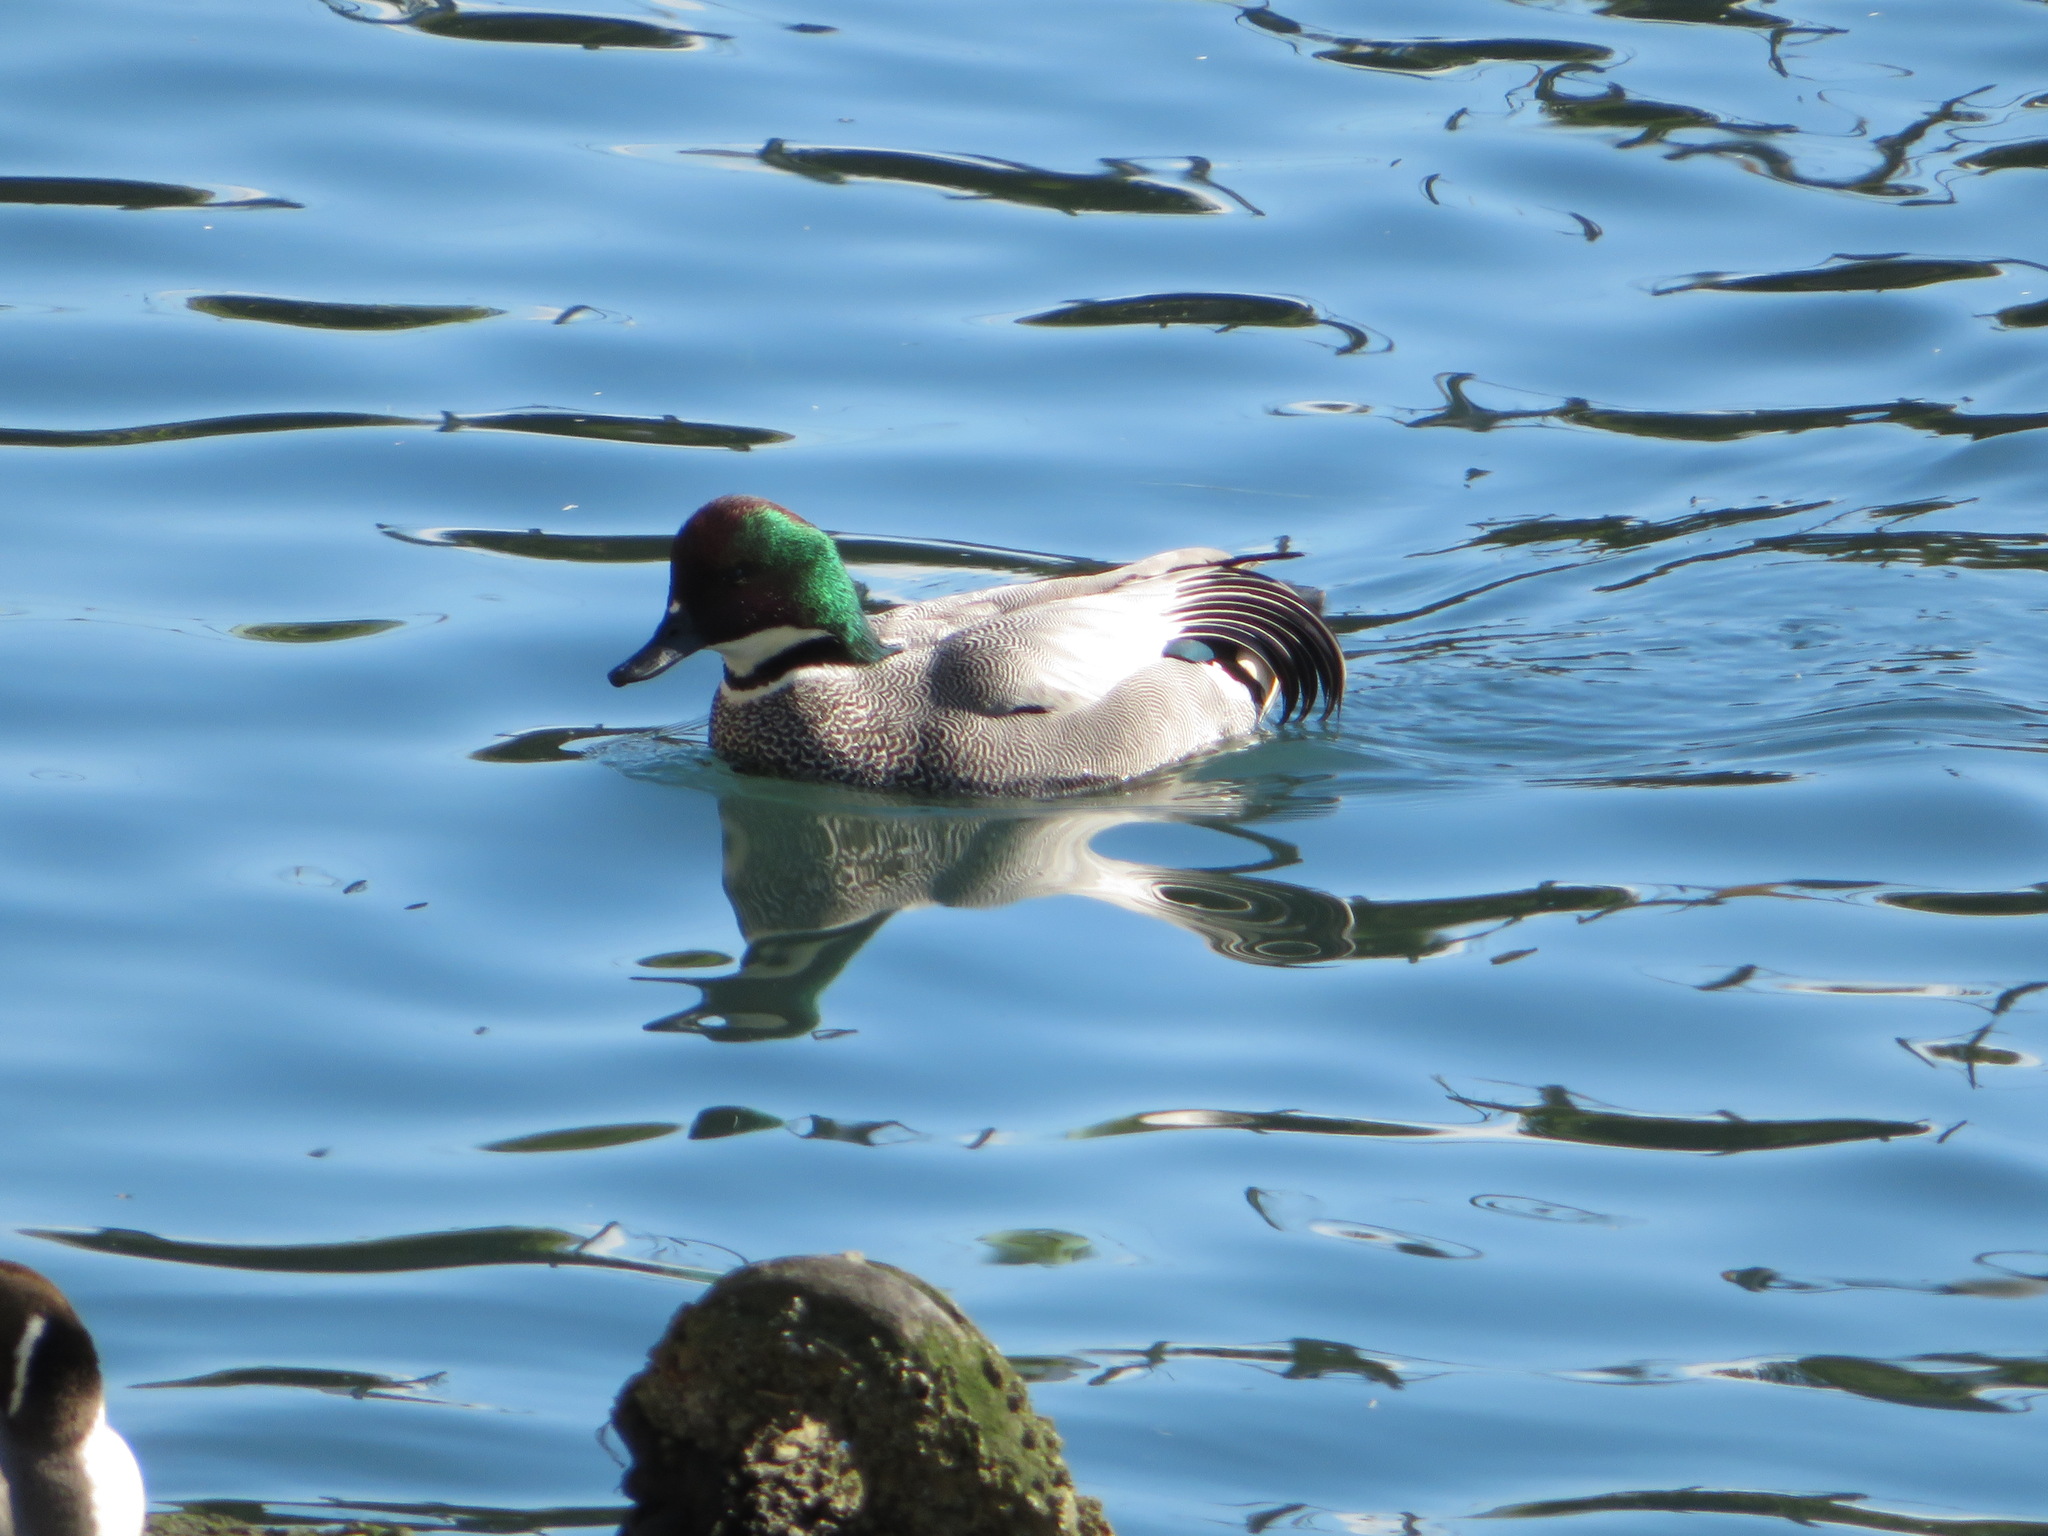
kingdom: Animalia
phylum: Chordata
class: Aves
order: Anseriformes
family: Anatidae
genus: Mareca
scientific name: Mareca falcata
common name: Falcated duck
